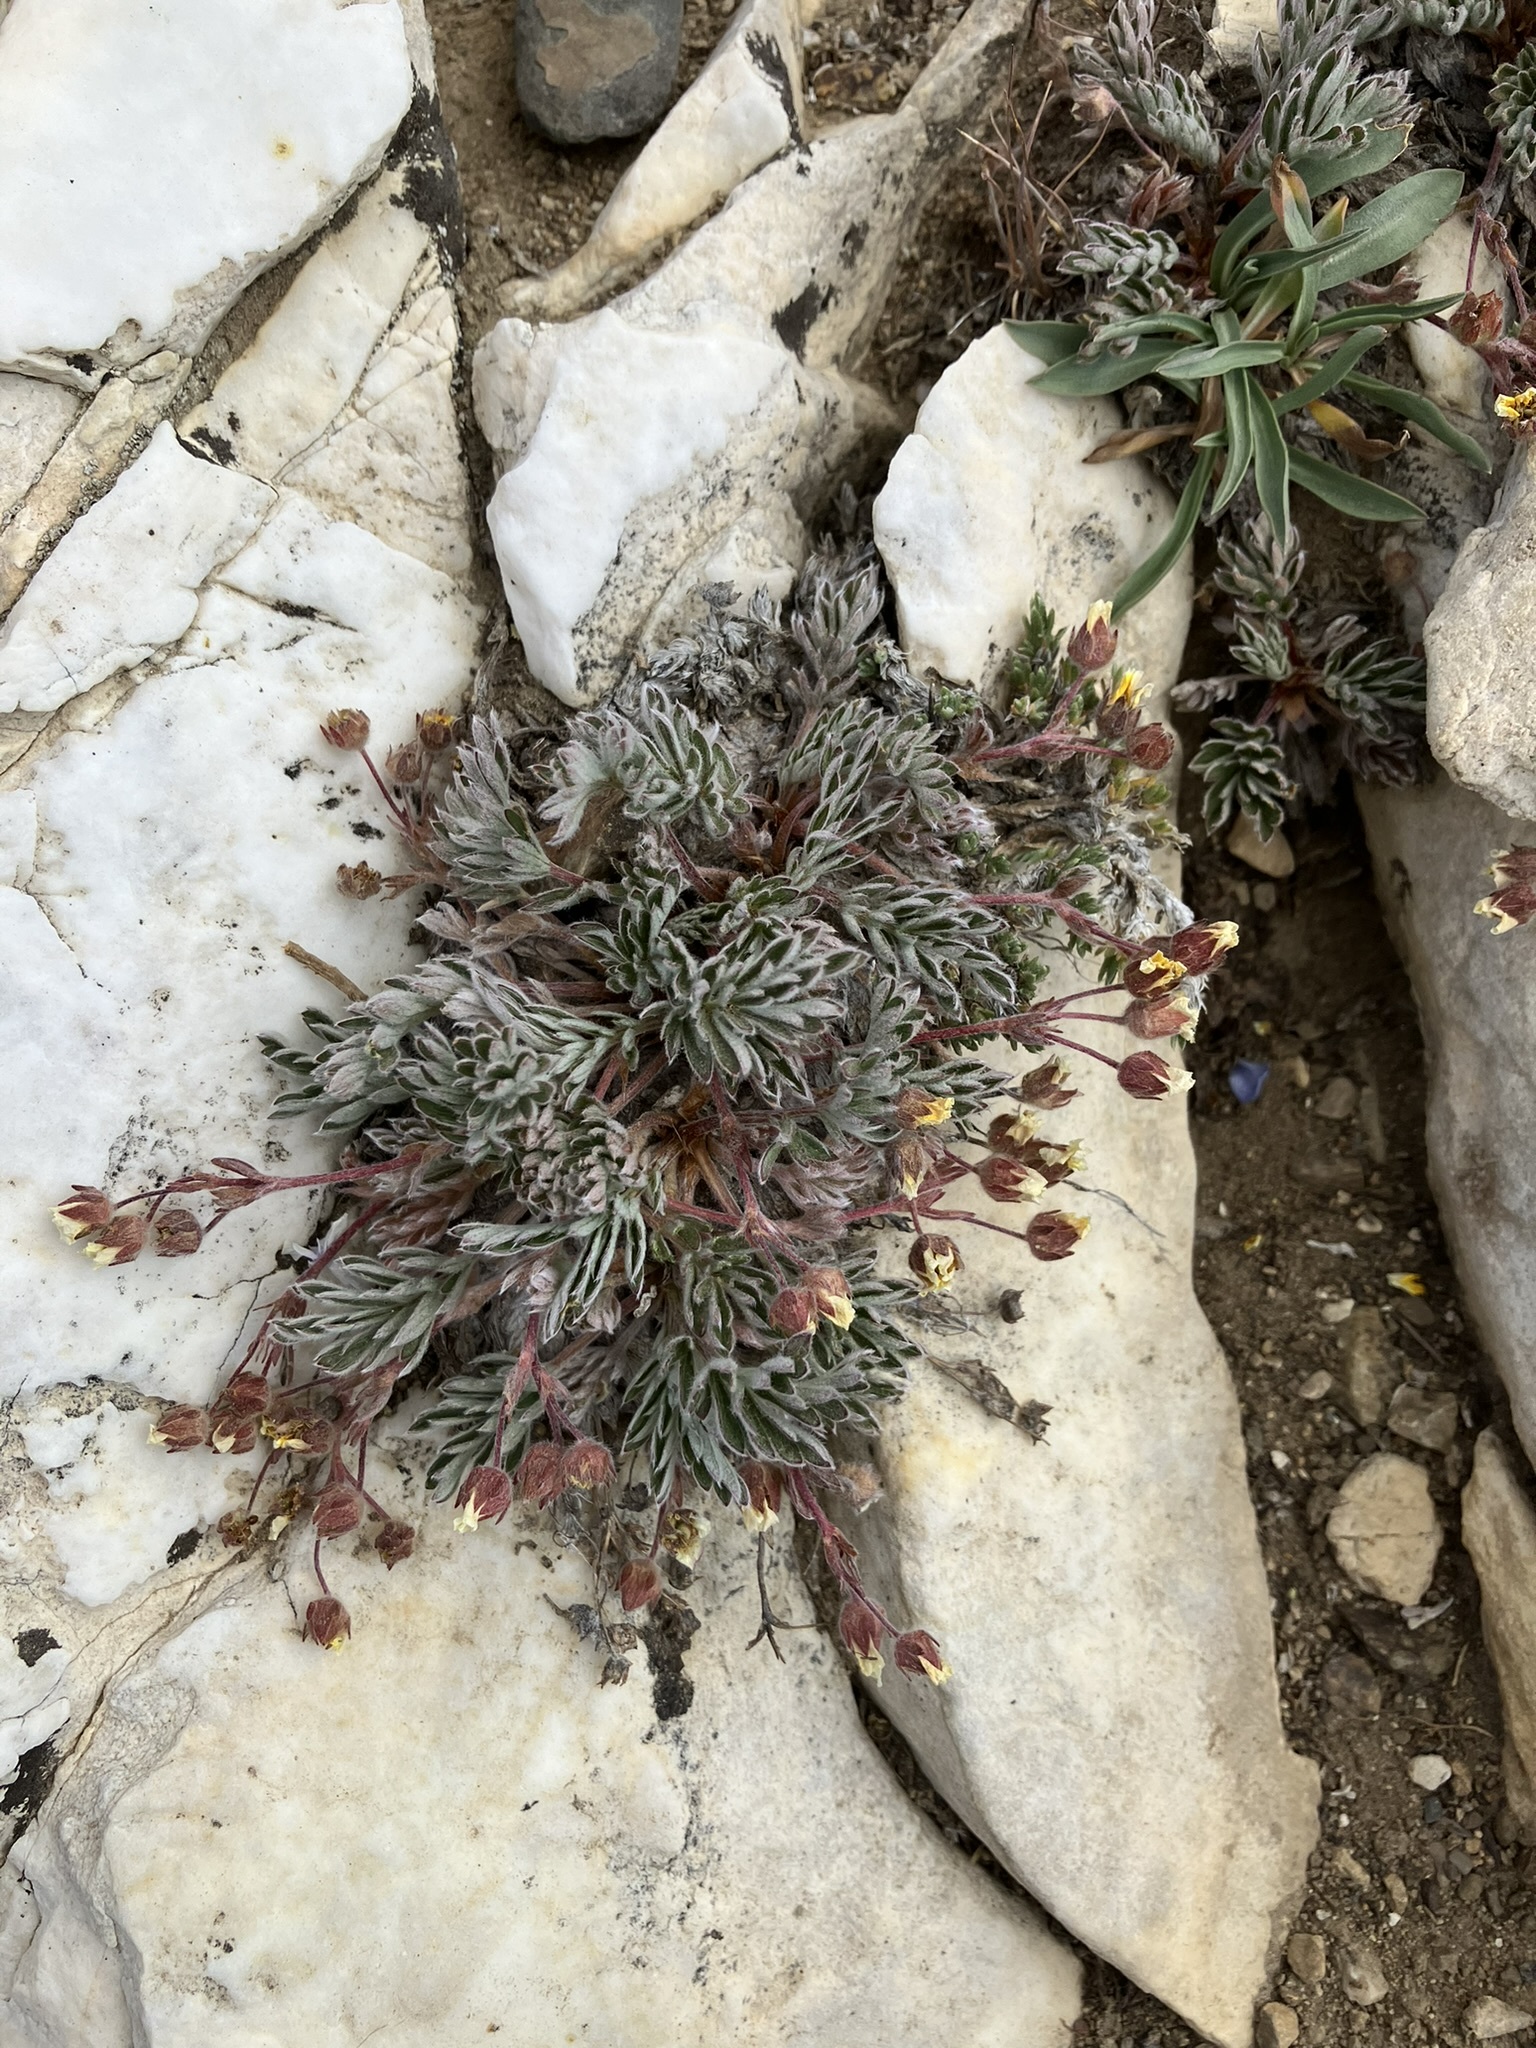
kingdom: Plantae
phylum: Tracheophyta
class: Magnoliopsida
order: Rosales
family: Rosaceae
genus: Potentilla
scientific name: Potentilla morefieldii
